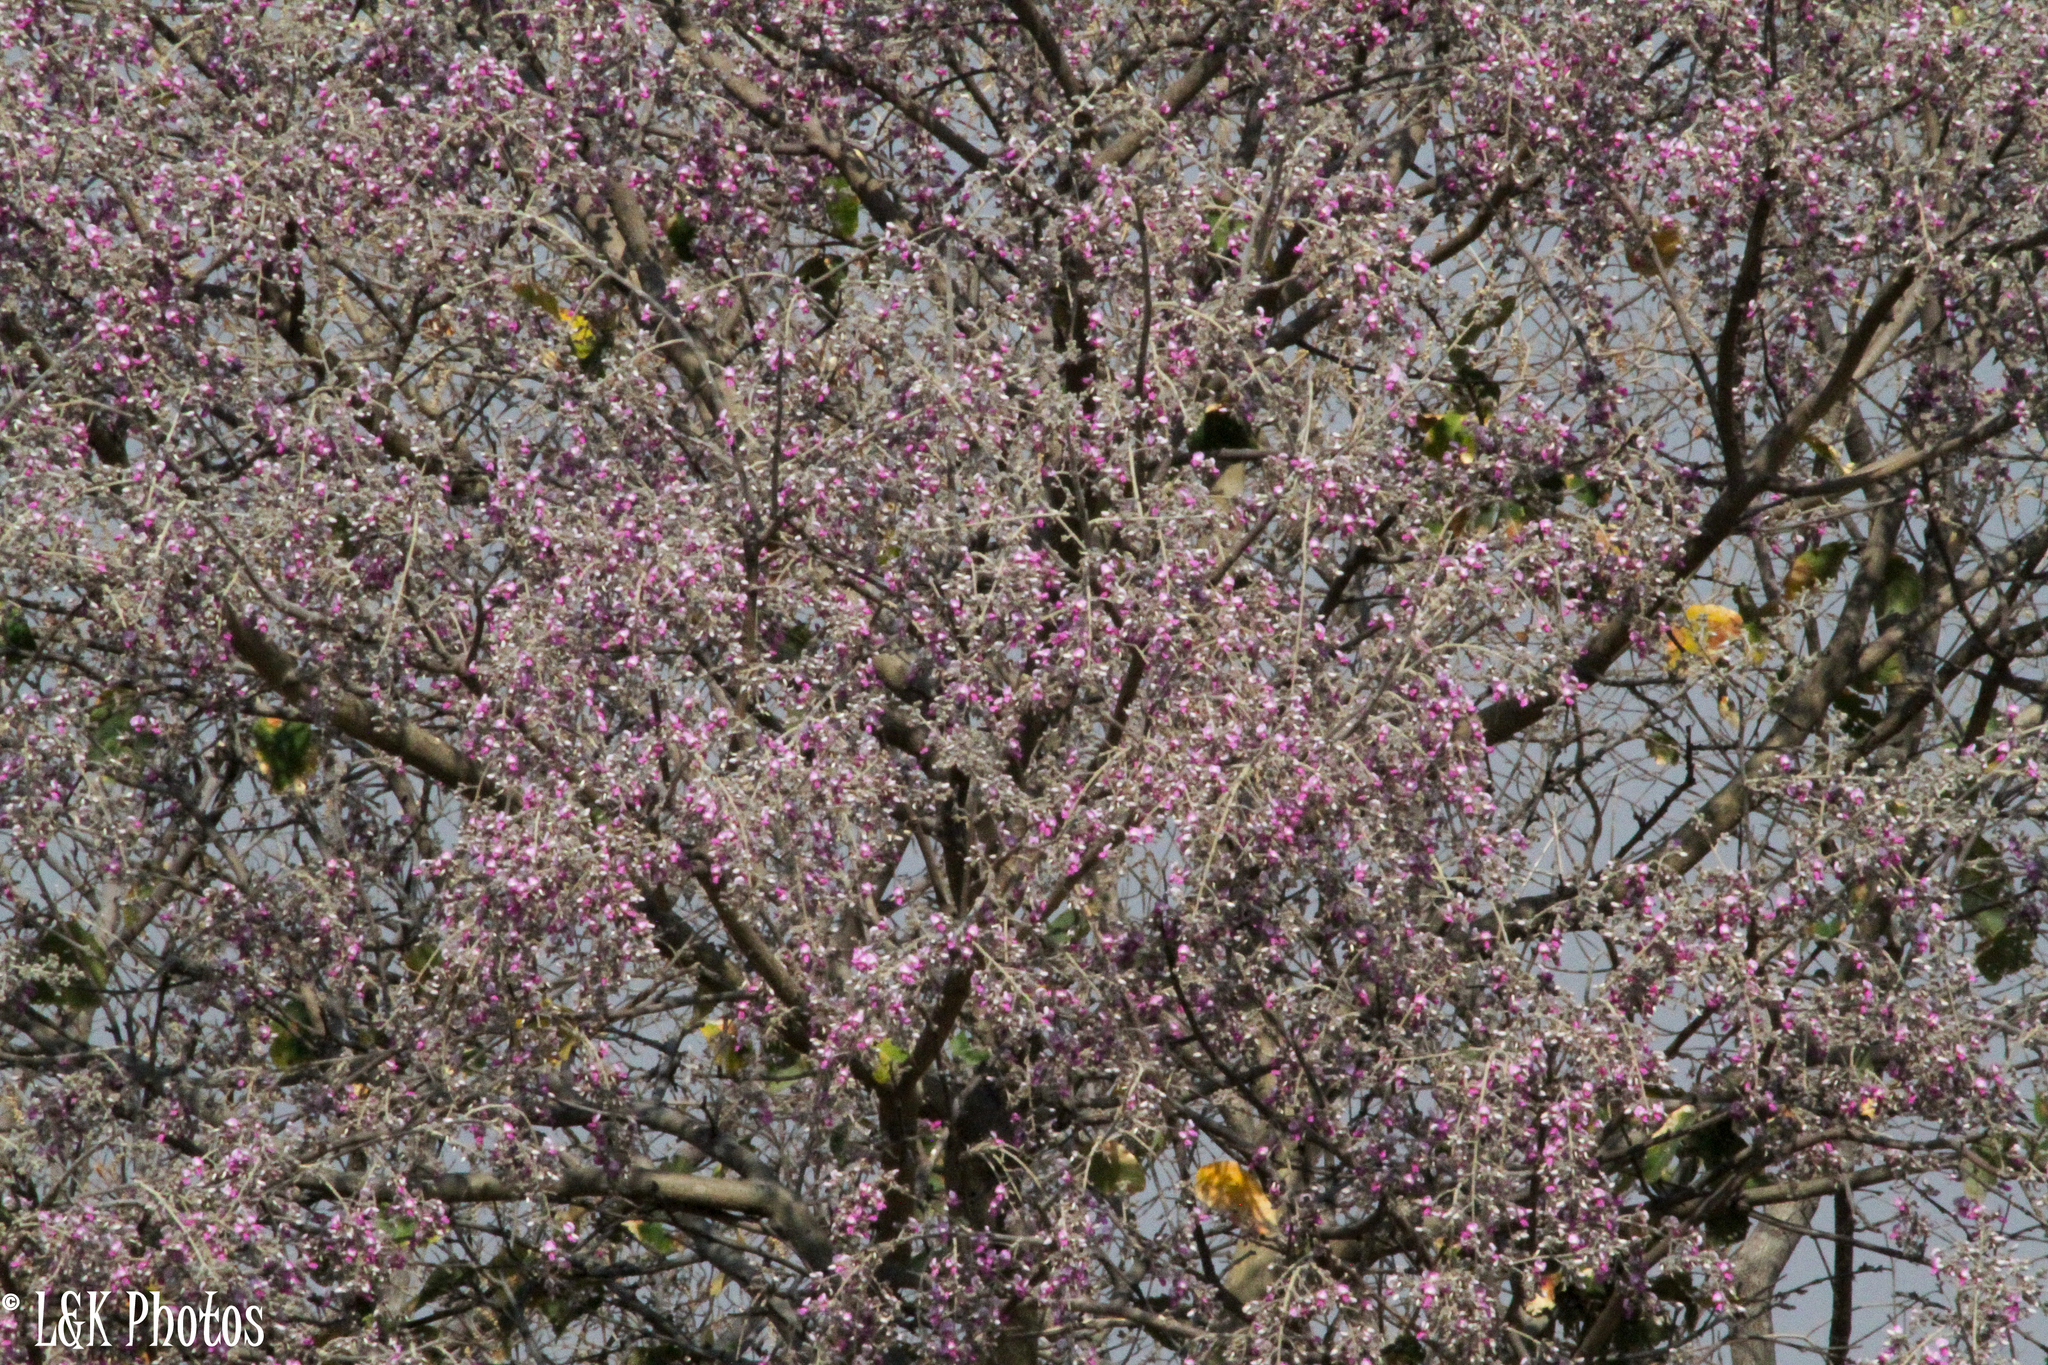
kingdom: Plantae
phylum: Tracheophyta
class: Magnoliopsida
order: Fabales
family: Fabaceae
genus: Philenoptera
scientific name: Philenoptera nelsii
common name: Kalahari apple-leaf
